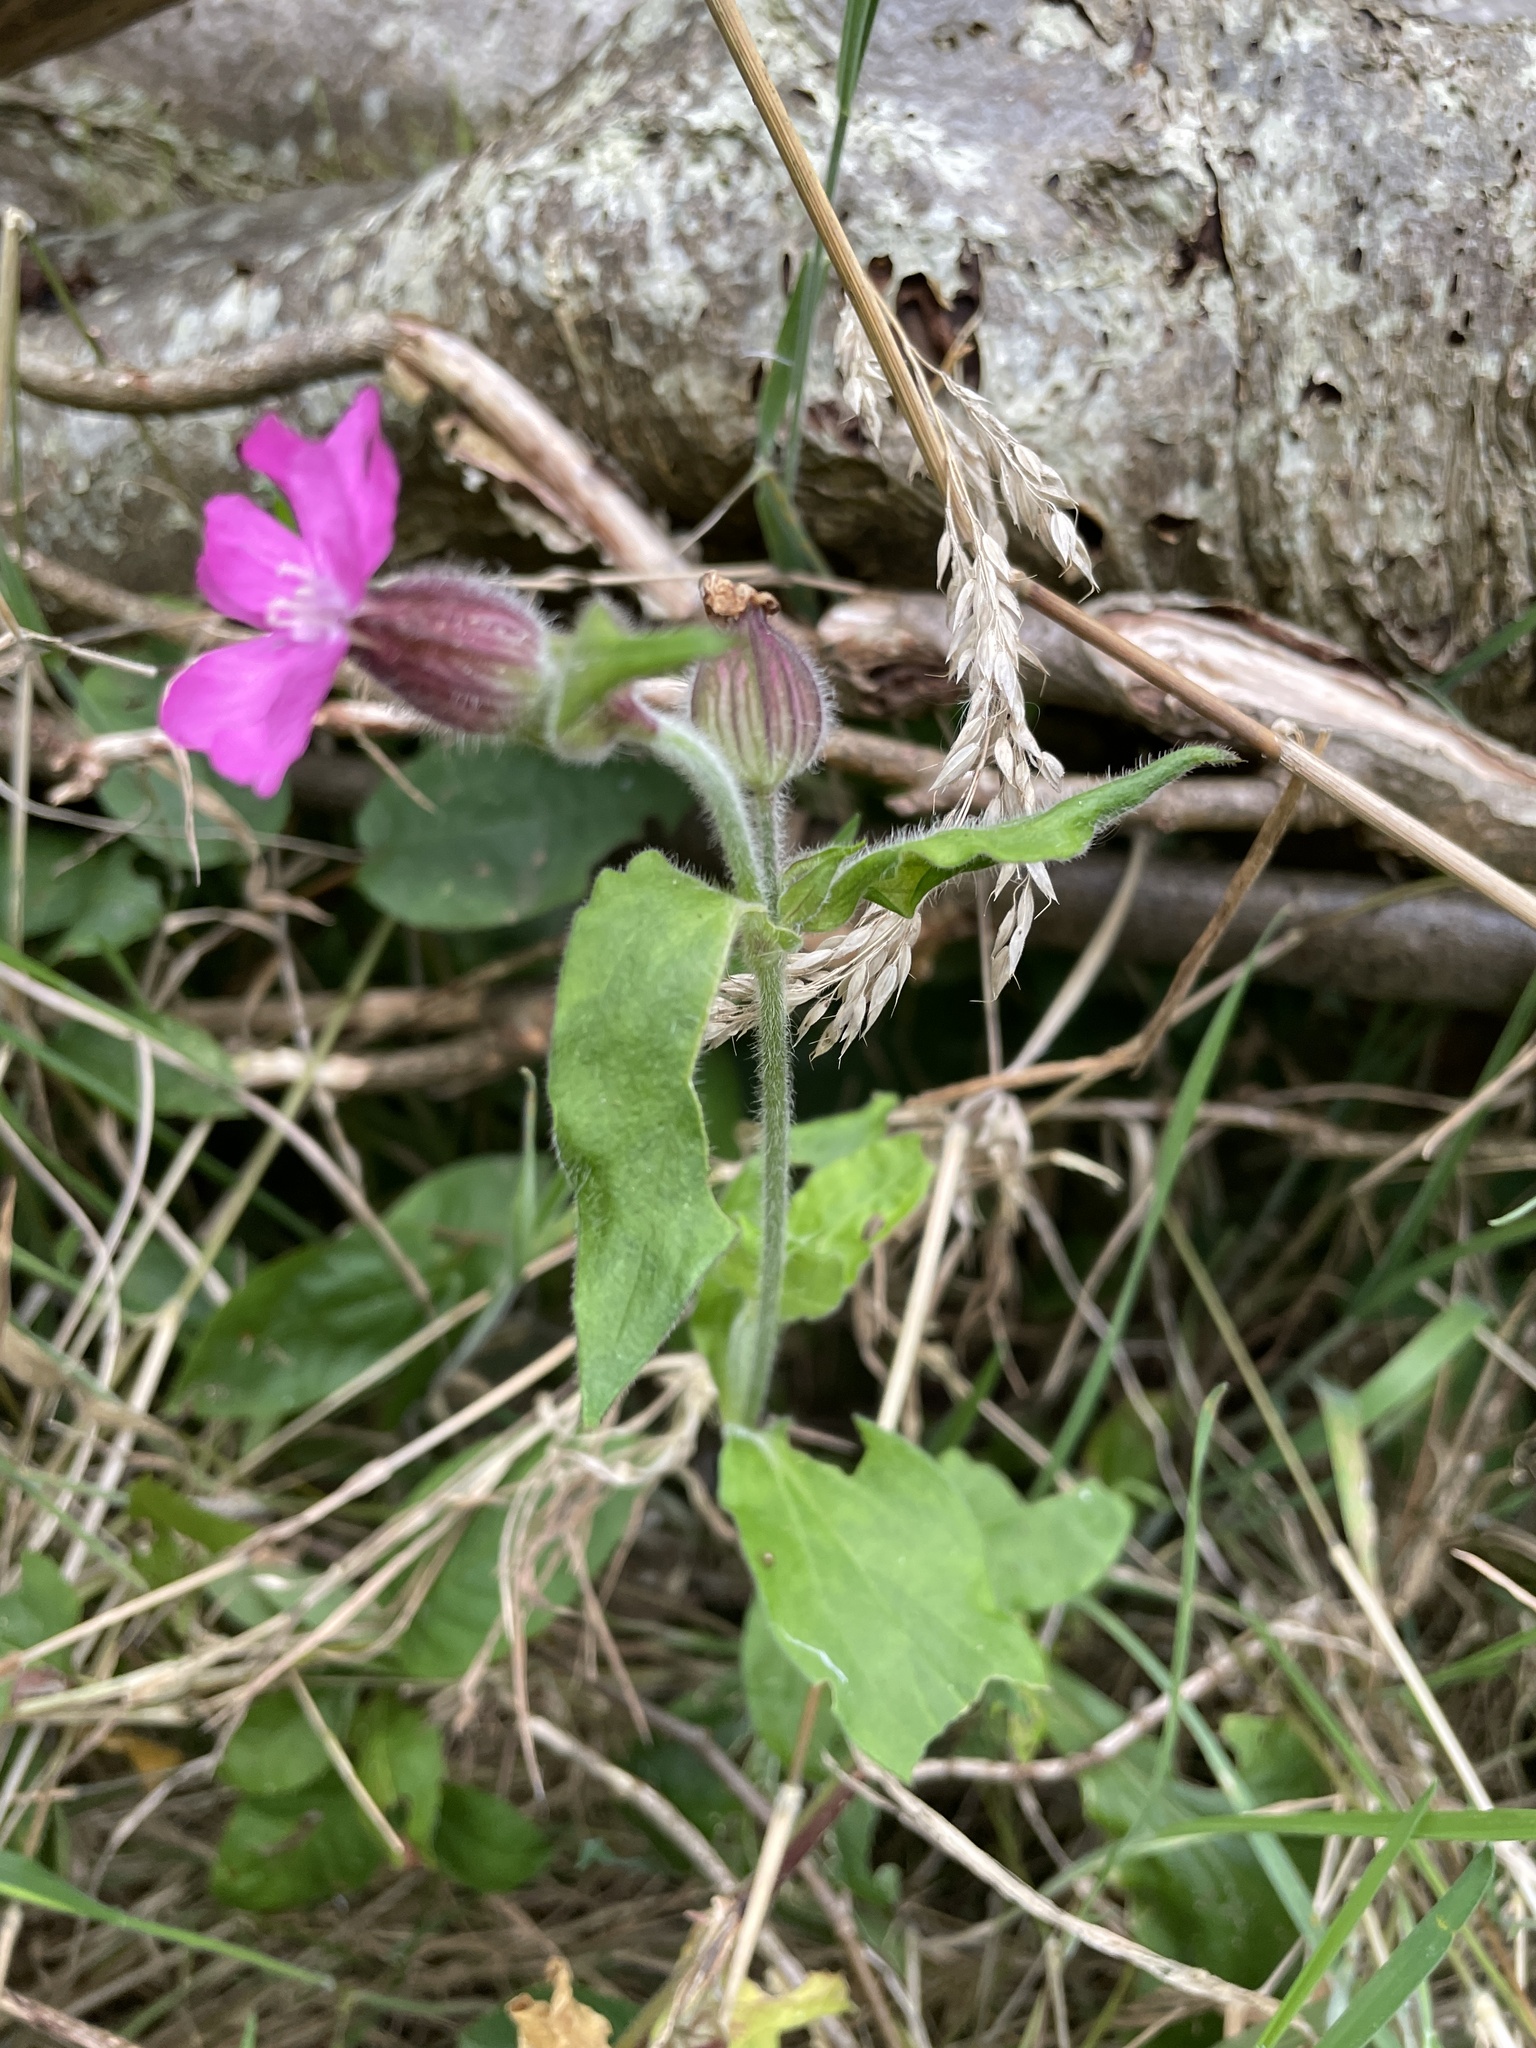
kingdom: Plantae
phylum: Tracheophyta
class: Magnoliopsida
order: Caryophyllales
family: Caryophyllaceae
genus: Silene
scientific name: Silene dioica
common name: Red campion
